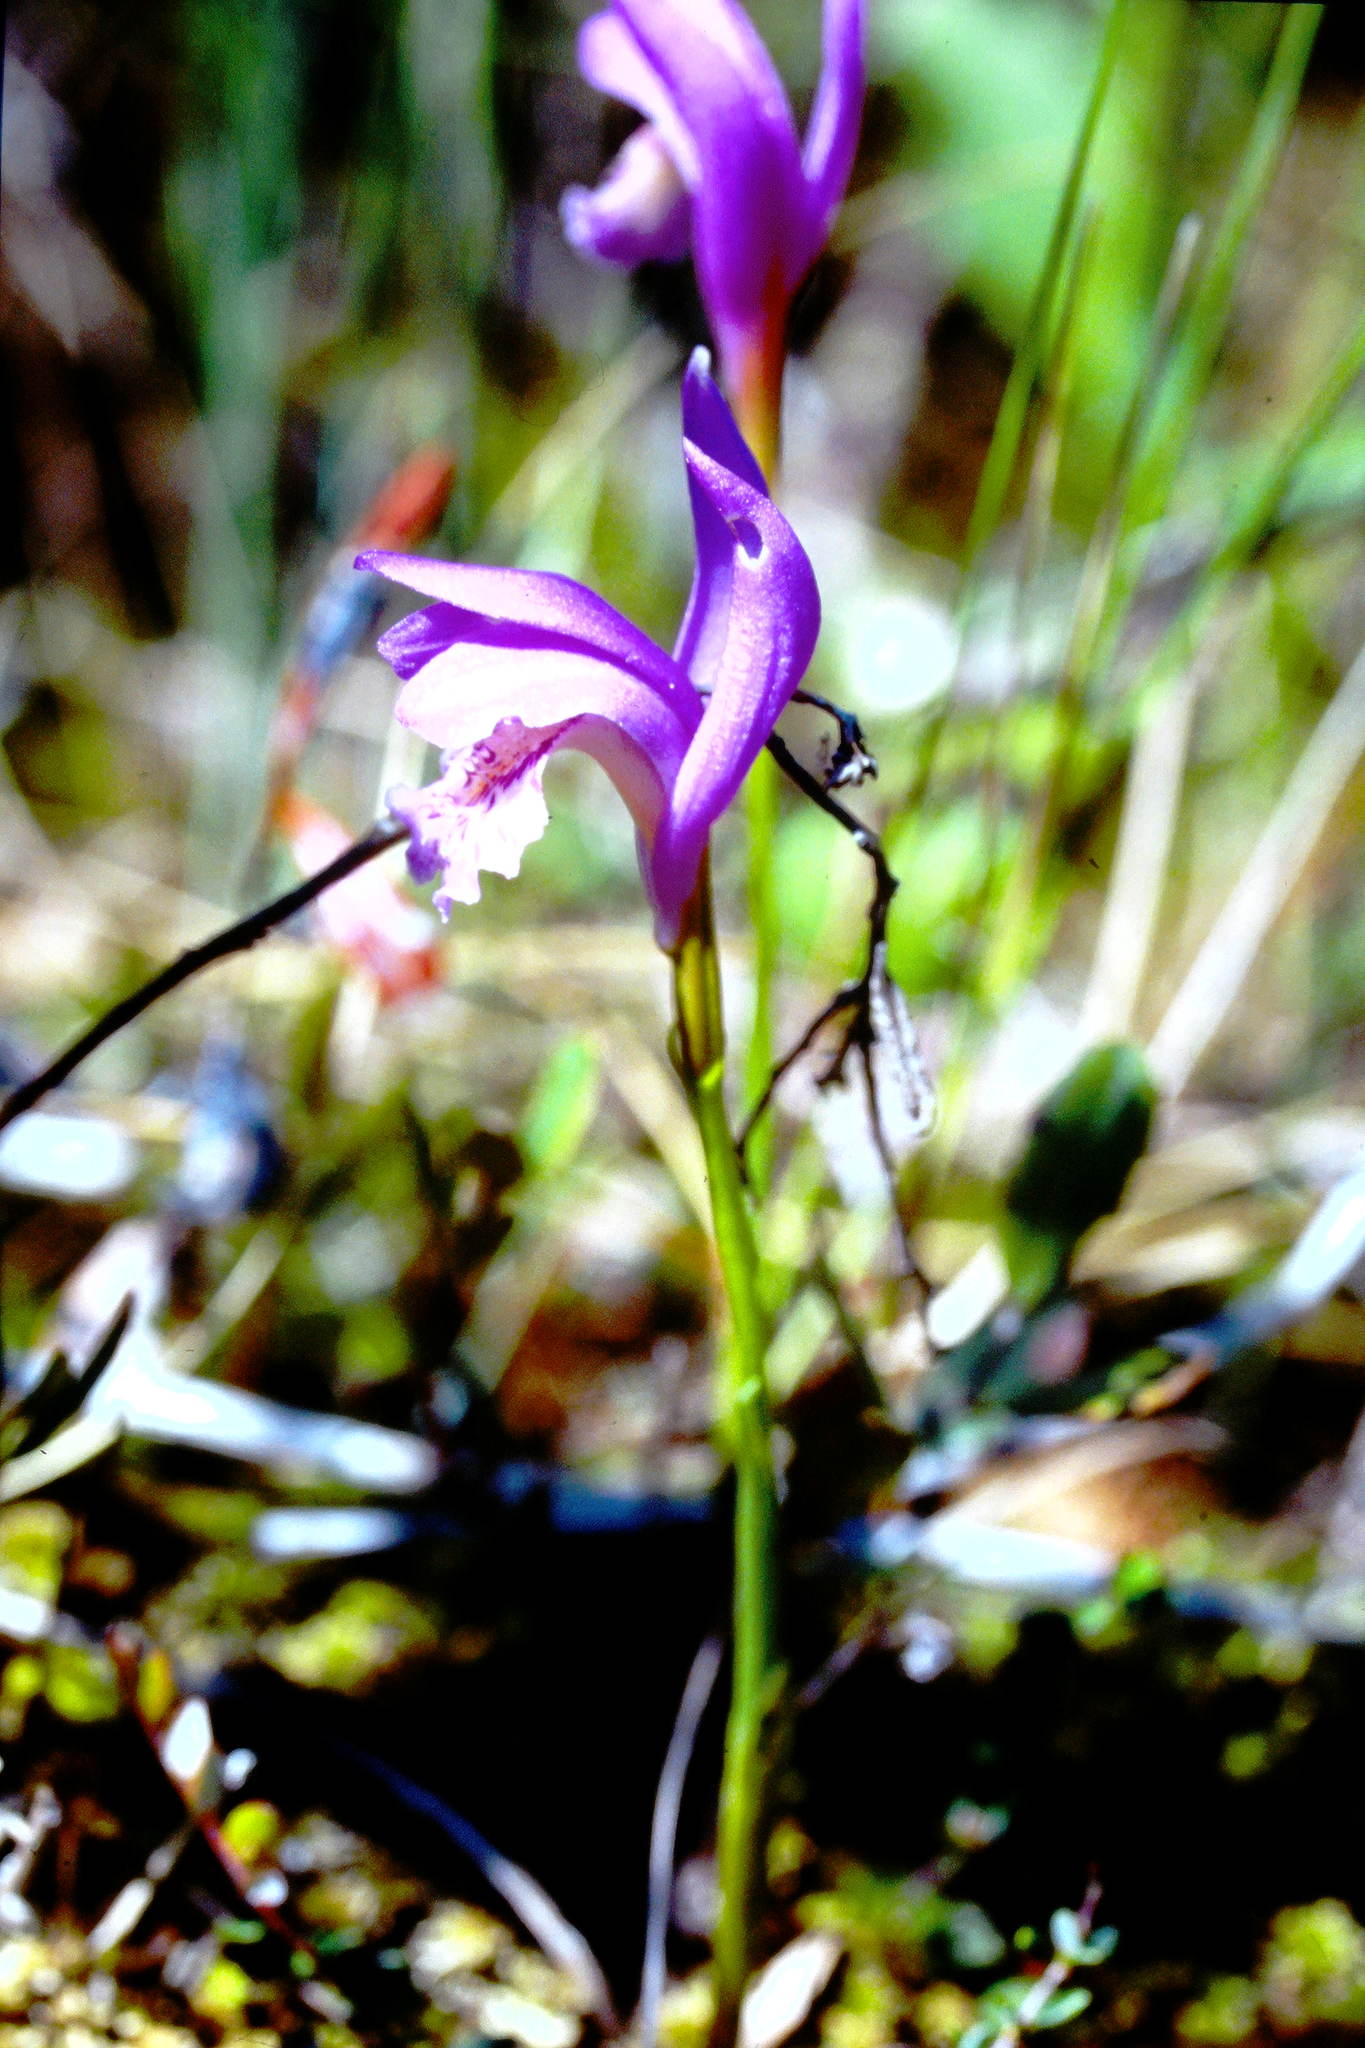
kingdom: Plantae
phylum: Tracheophyta
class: Liliopsida
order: Asparagales
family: Orchidaceae
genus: Arethusa
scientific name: Arethusa bulbosa
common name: Arethusa
